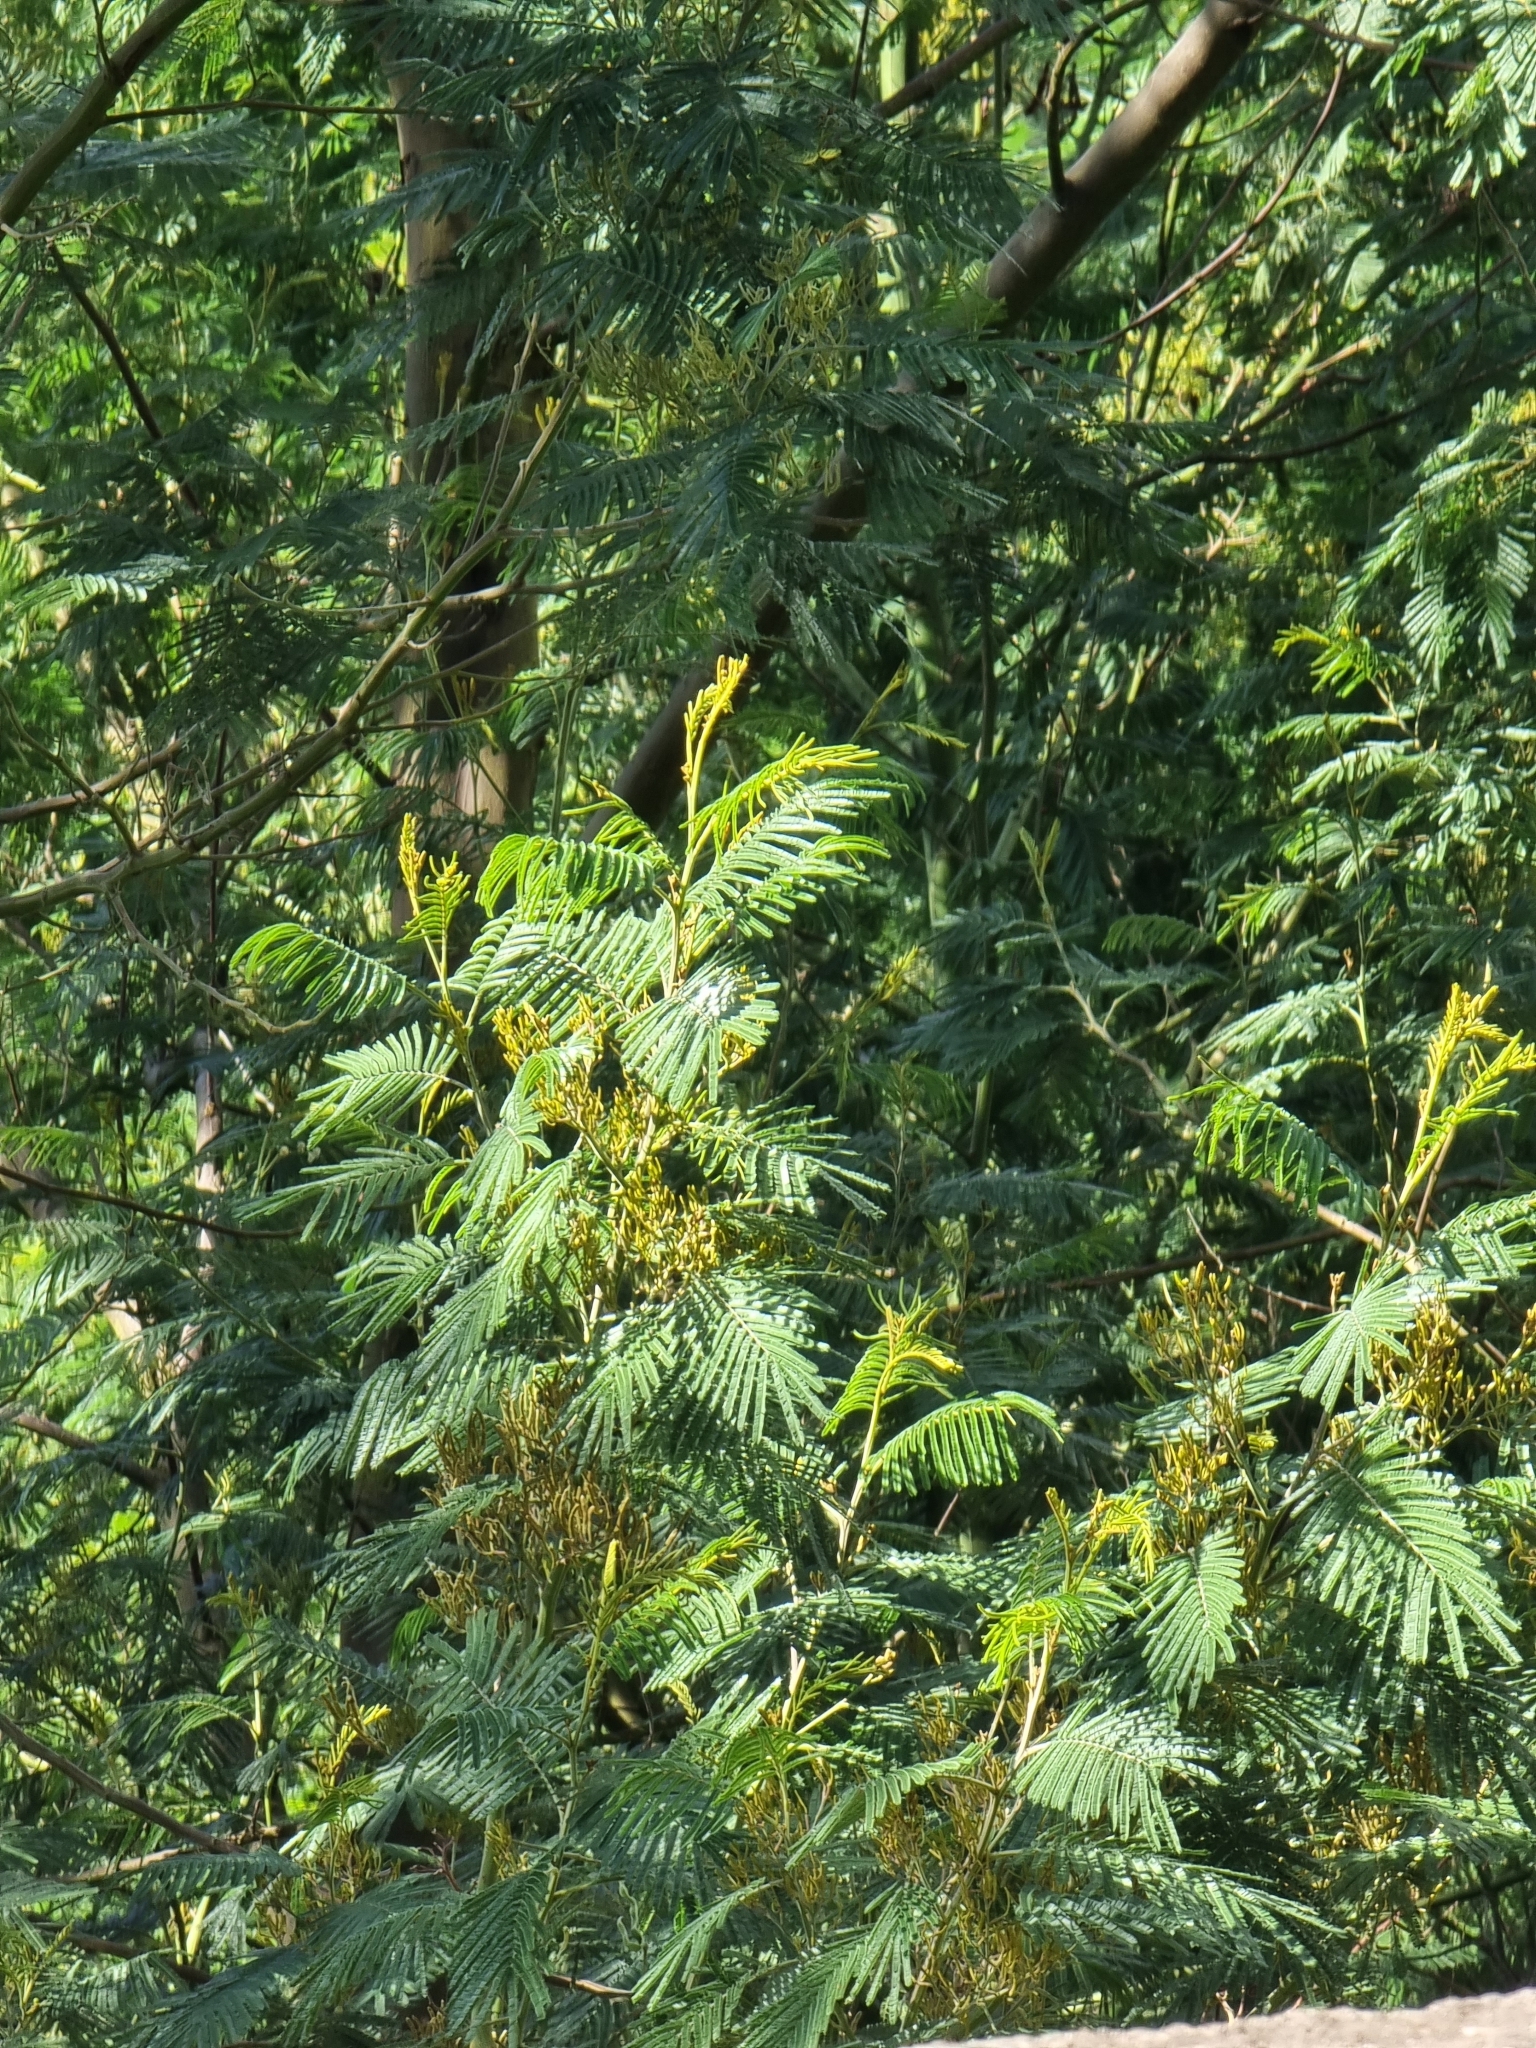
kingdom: Plantae
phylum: Tracheophyta
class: Magnoliopsida
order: Fabales
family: Fabaceae
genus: Acacia
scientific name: Acacia mearnsii
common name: Black wattle
